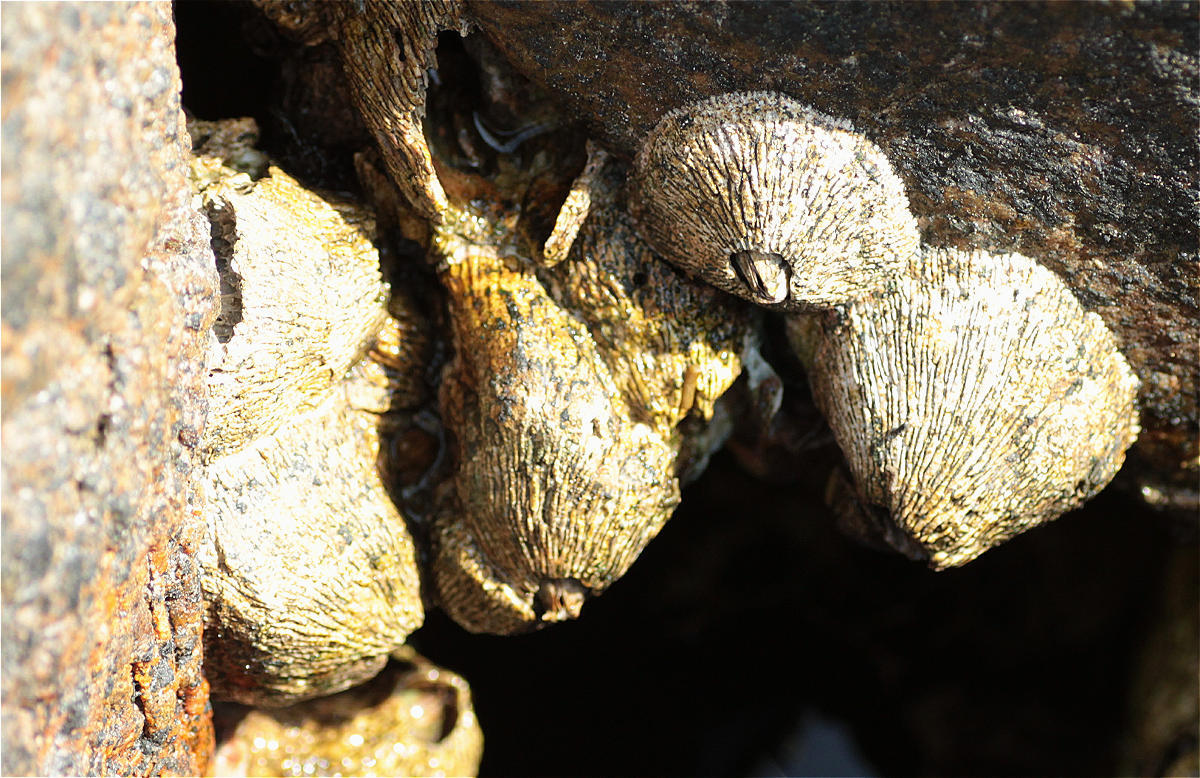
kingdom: Animalia
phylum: Arthropoda
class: Maxillopoda
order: Sessilia
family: Tetraclitidae
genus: Tetraclita
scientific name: Tetraclita rufotincta
